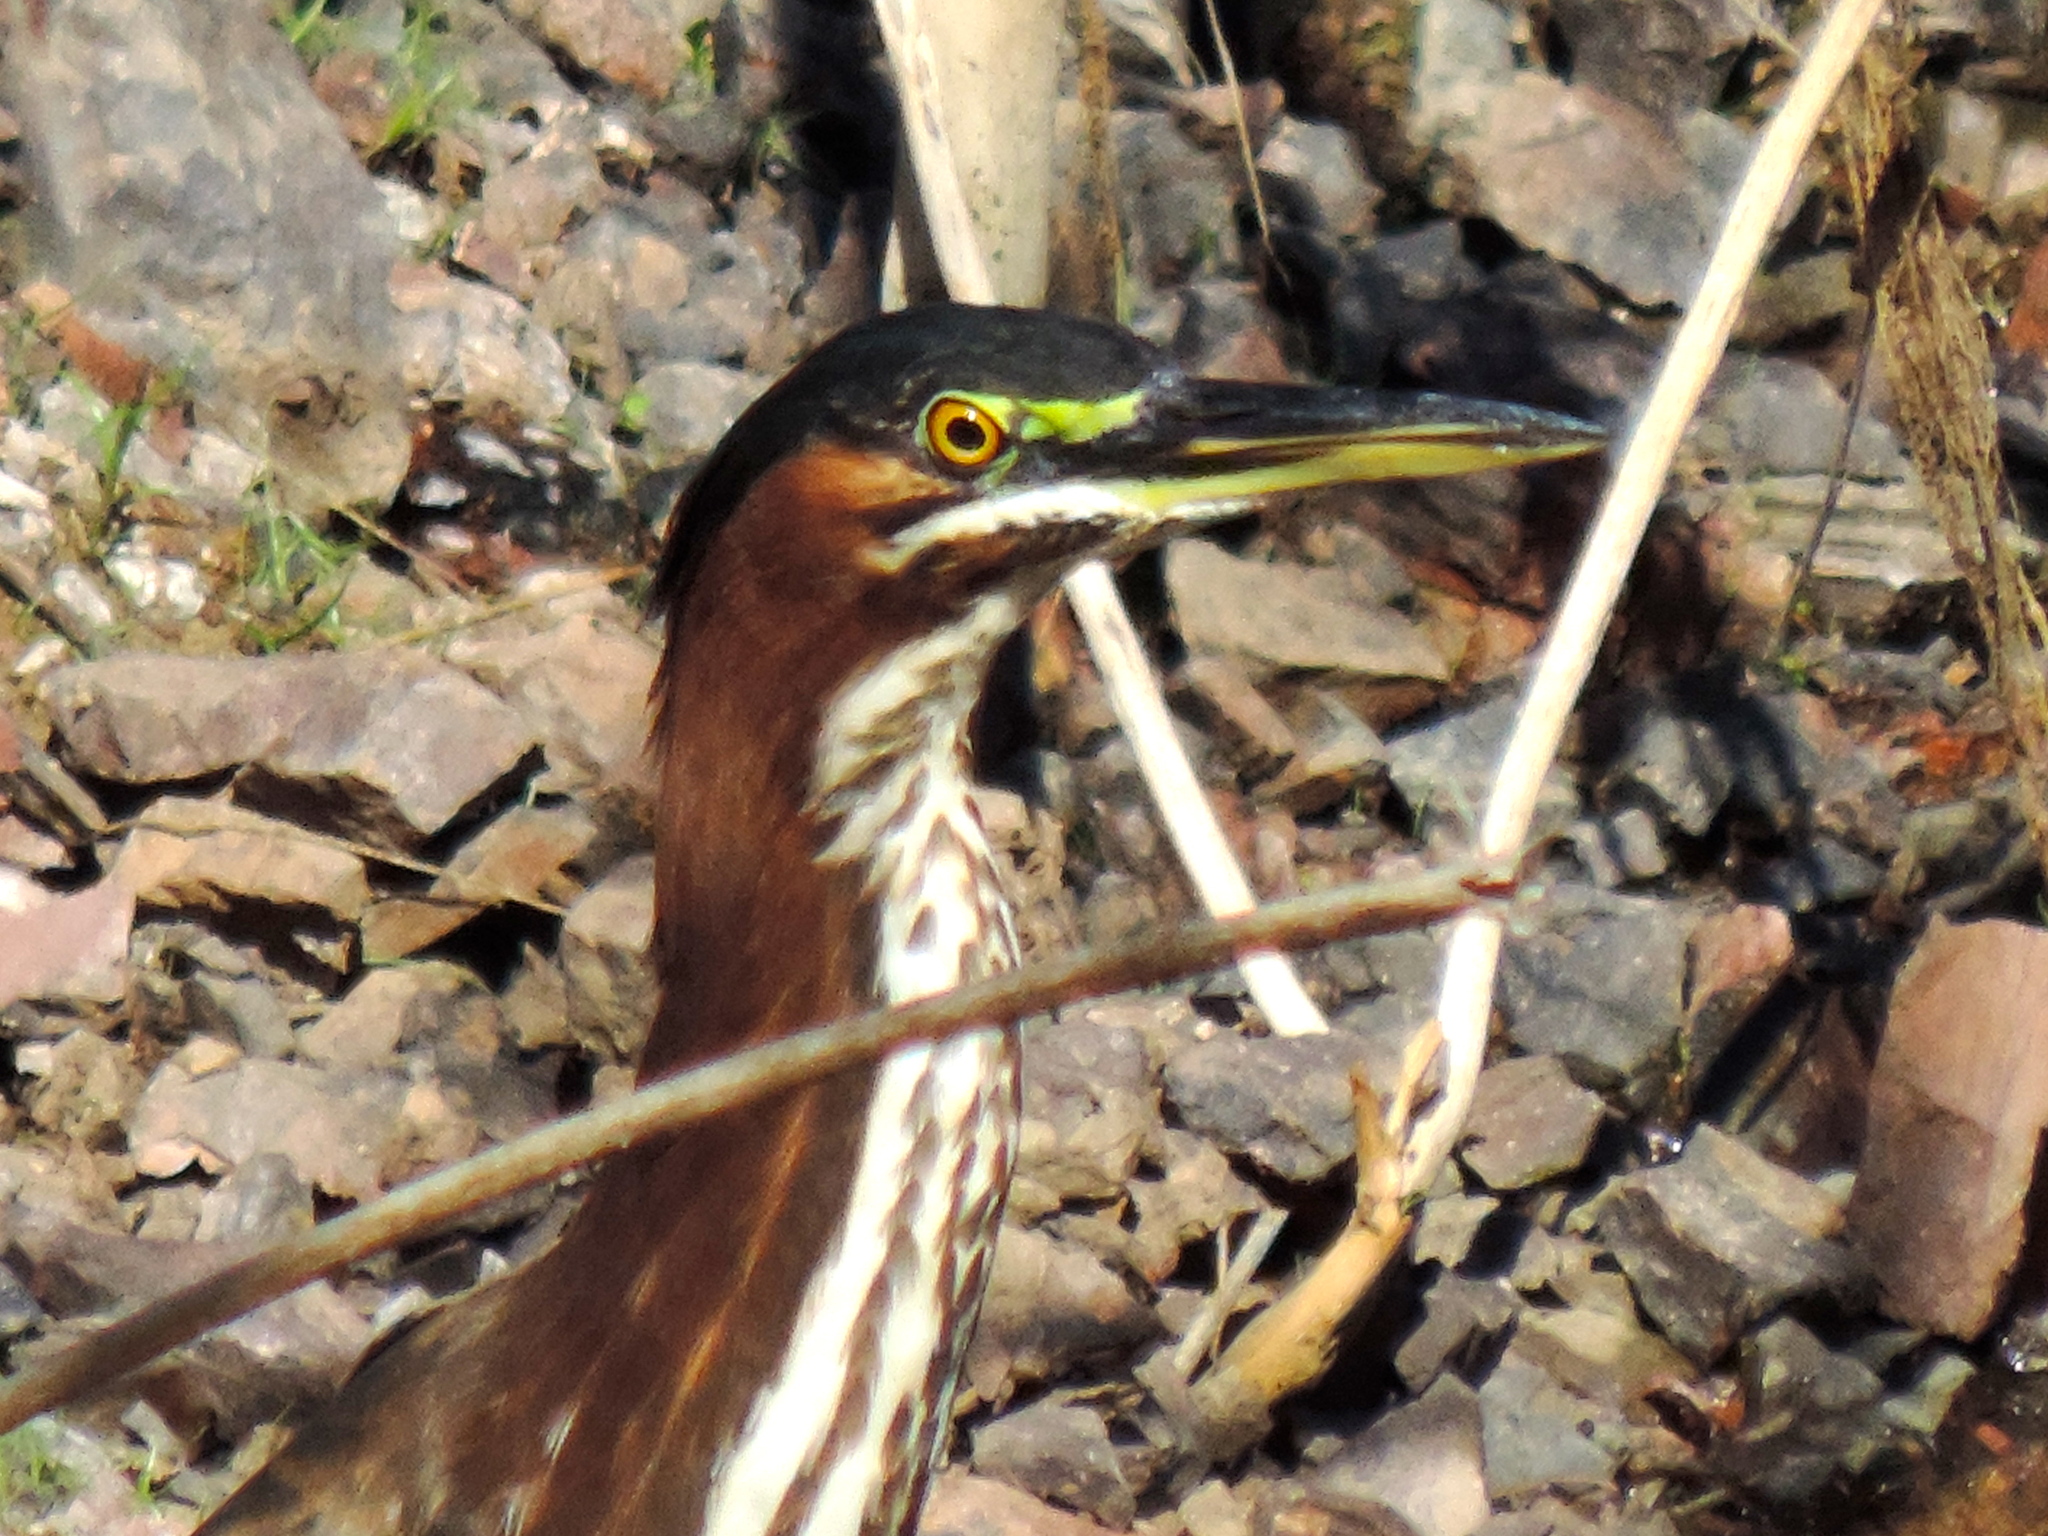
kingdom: Animalia
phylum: Chordata
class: Aves
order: Pelecaniformes
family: Ardeidae
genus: Butorides
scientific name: Butorides virescens
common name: Green heron
